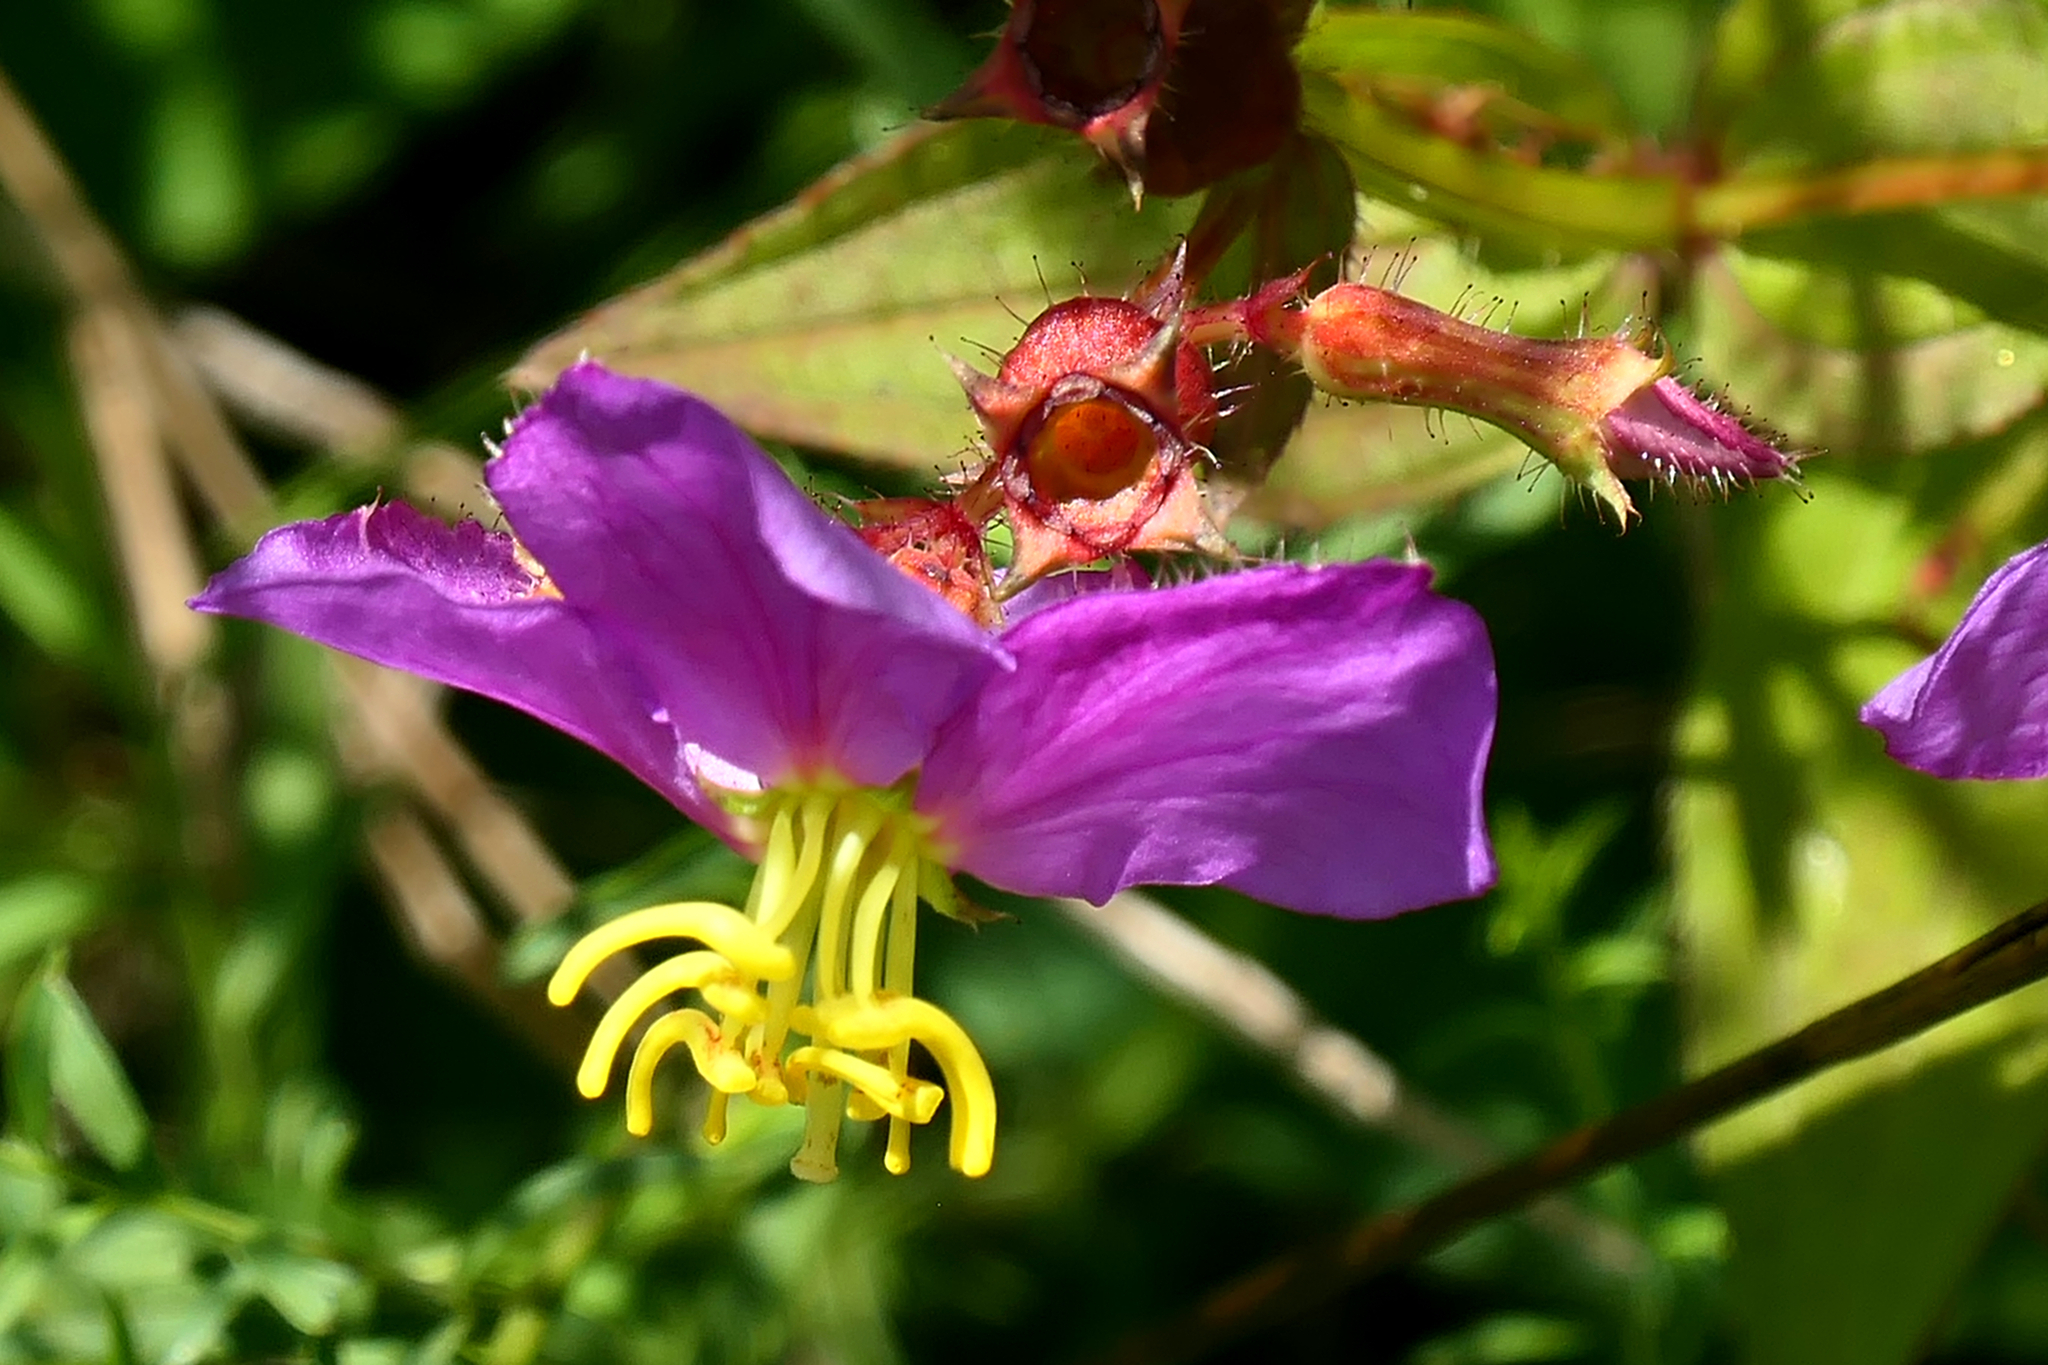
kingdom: Plantae
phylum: Tracheophyta
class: Magnoliopsida
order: Myrtales
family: Melastomataceae
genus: Rhexia
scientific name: Rhexia virginica
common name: Common meadow beauty
